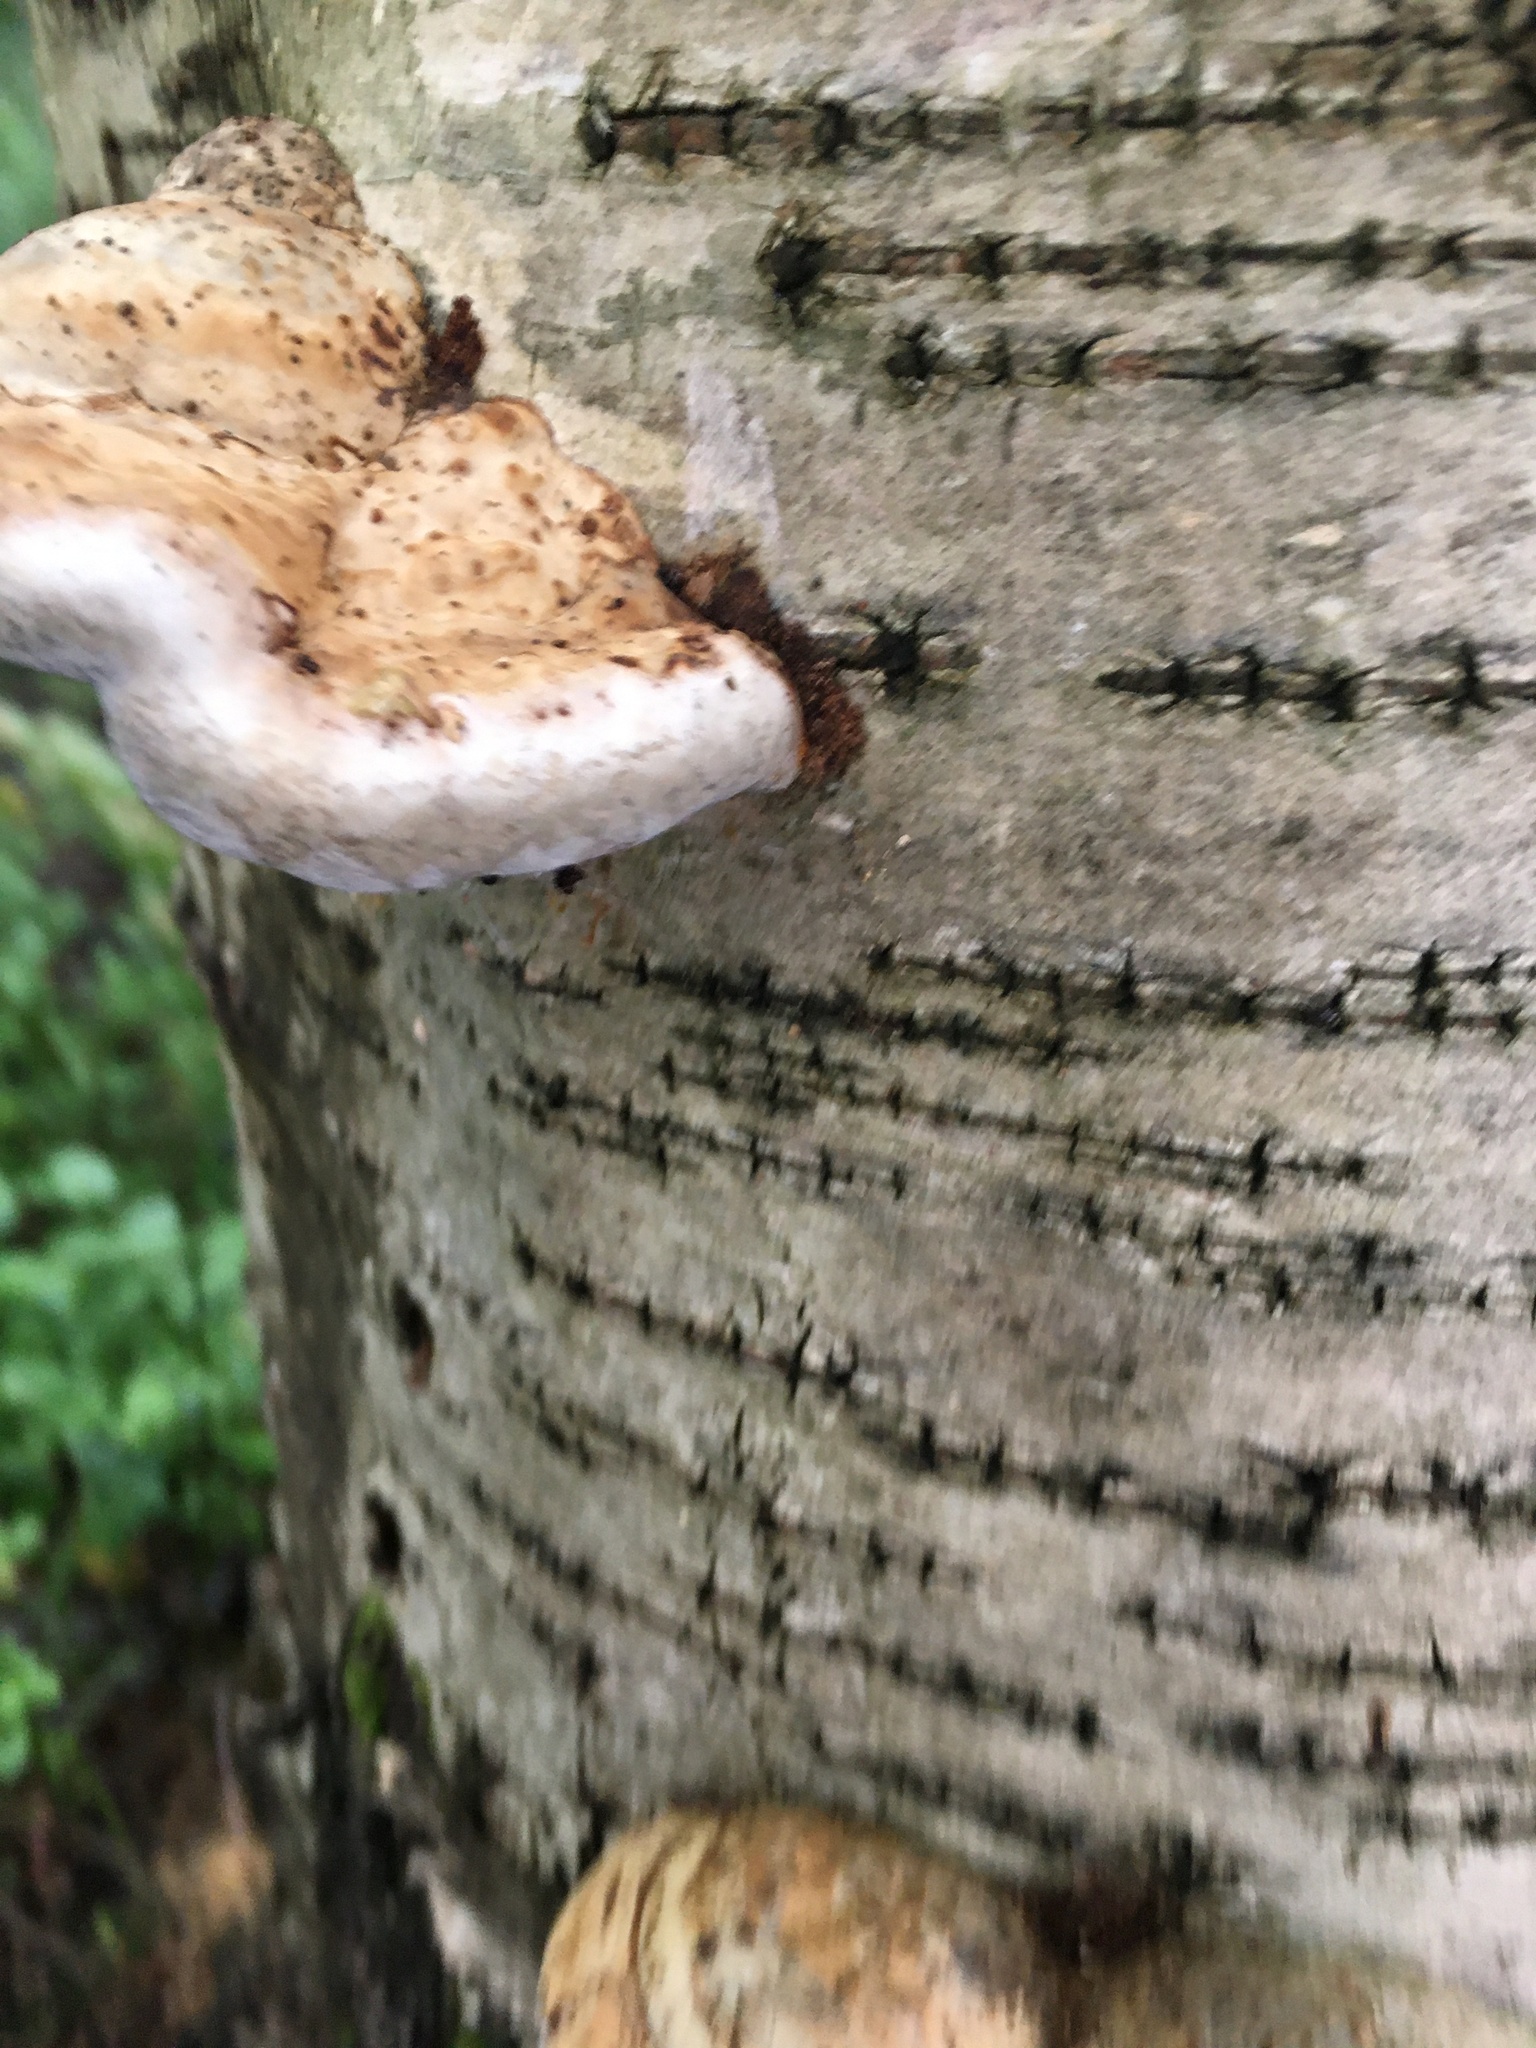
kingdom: Fungi
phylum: Basidiomycota
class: Agaricomycetes
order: Polyporales
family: Polyporaceae
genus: Fomes
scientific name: Fomes fomentarius
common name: Hoof fungus
